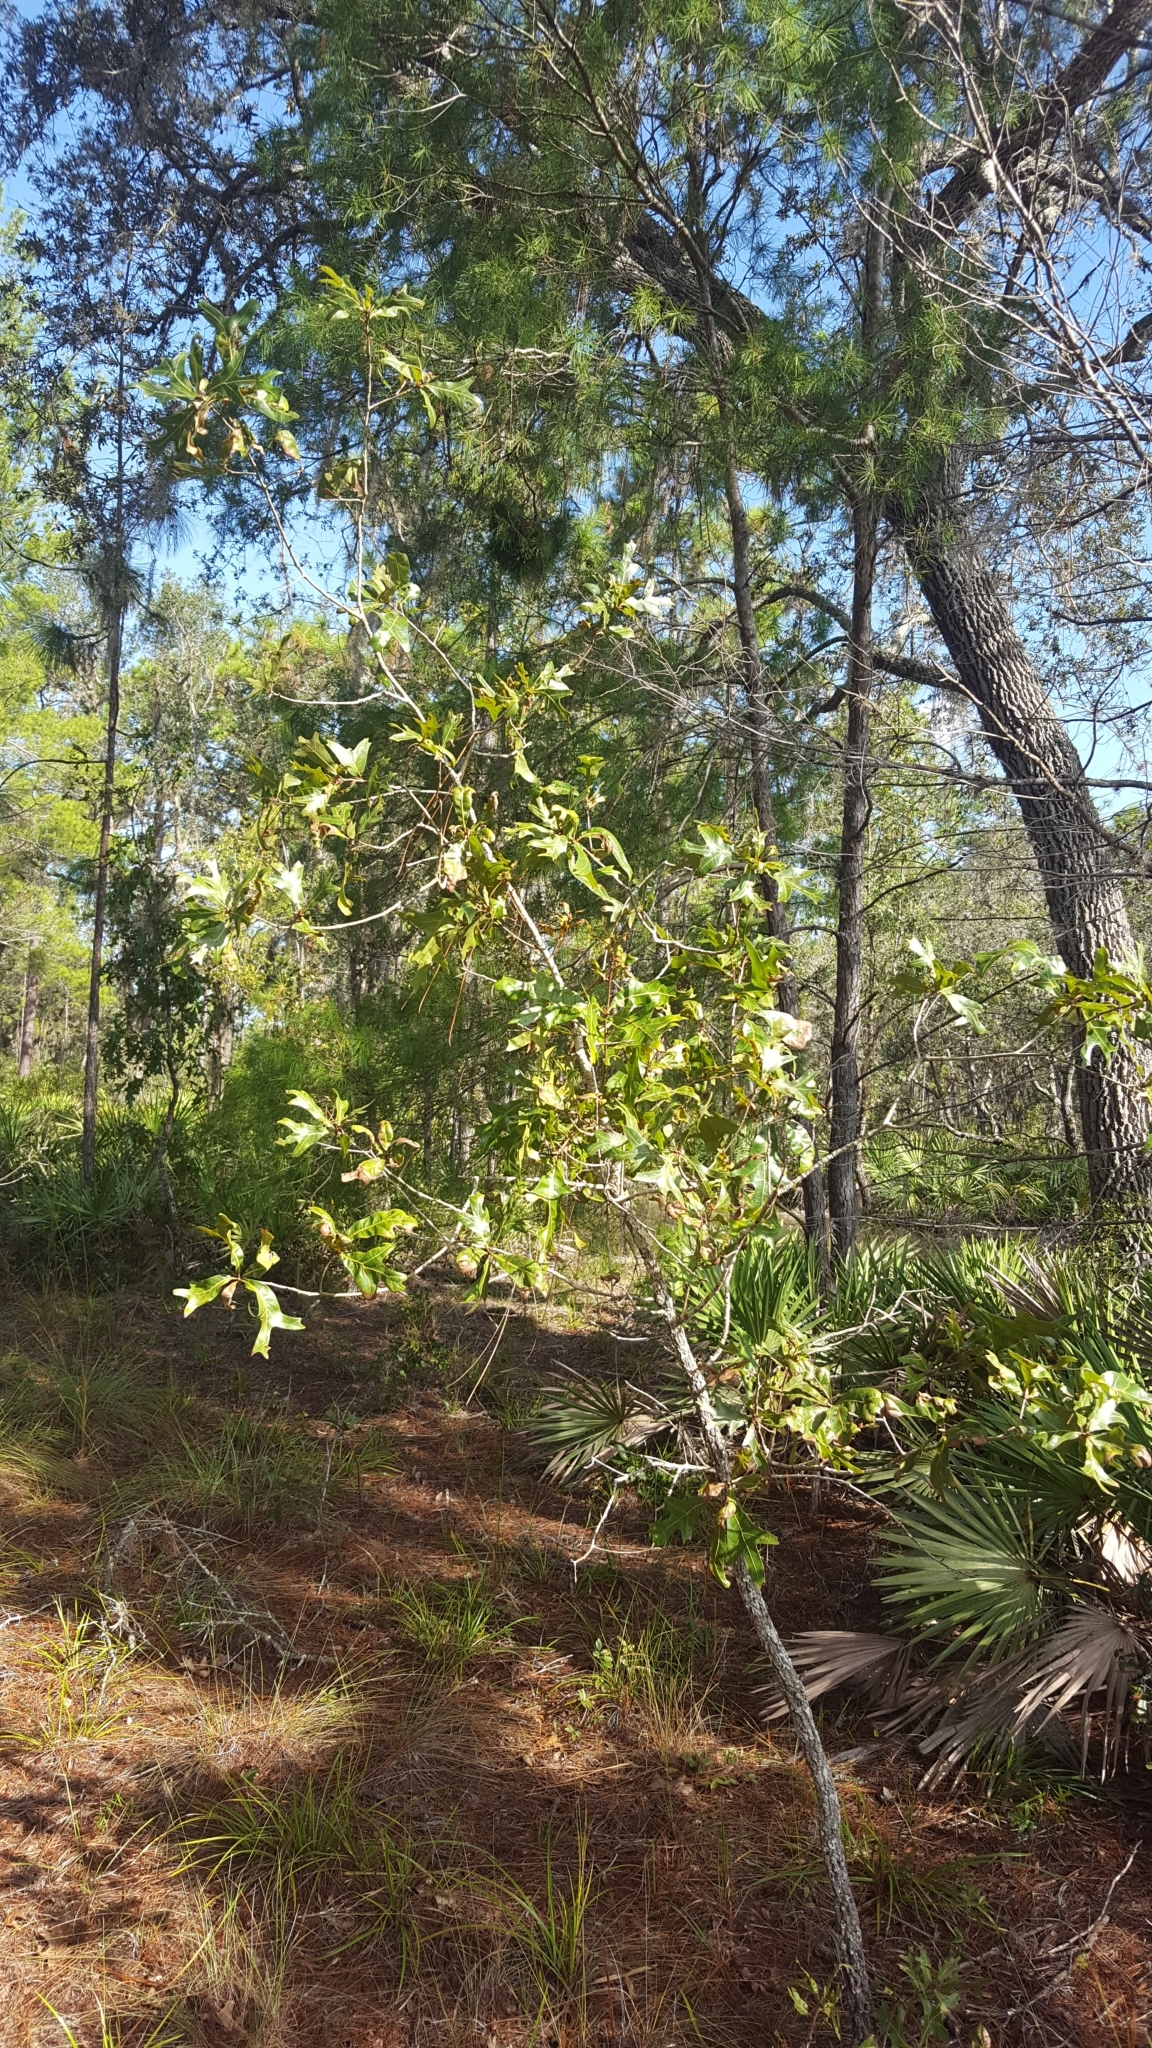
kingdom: Plantae
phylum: Tracheophyta
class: Magnoliopsida
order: Fagales
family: Fagaceae
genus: Quercus
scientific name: Quercus laevis
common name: Turkey oak
